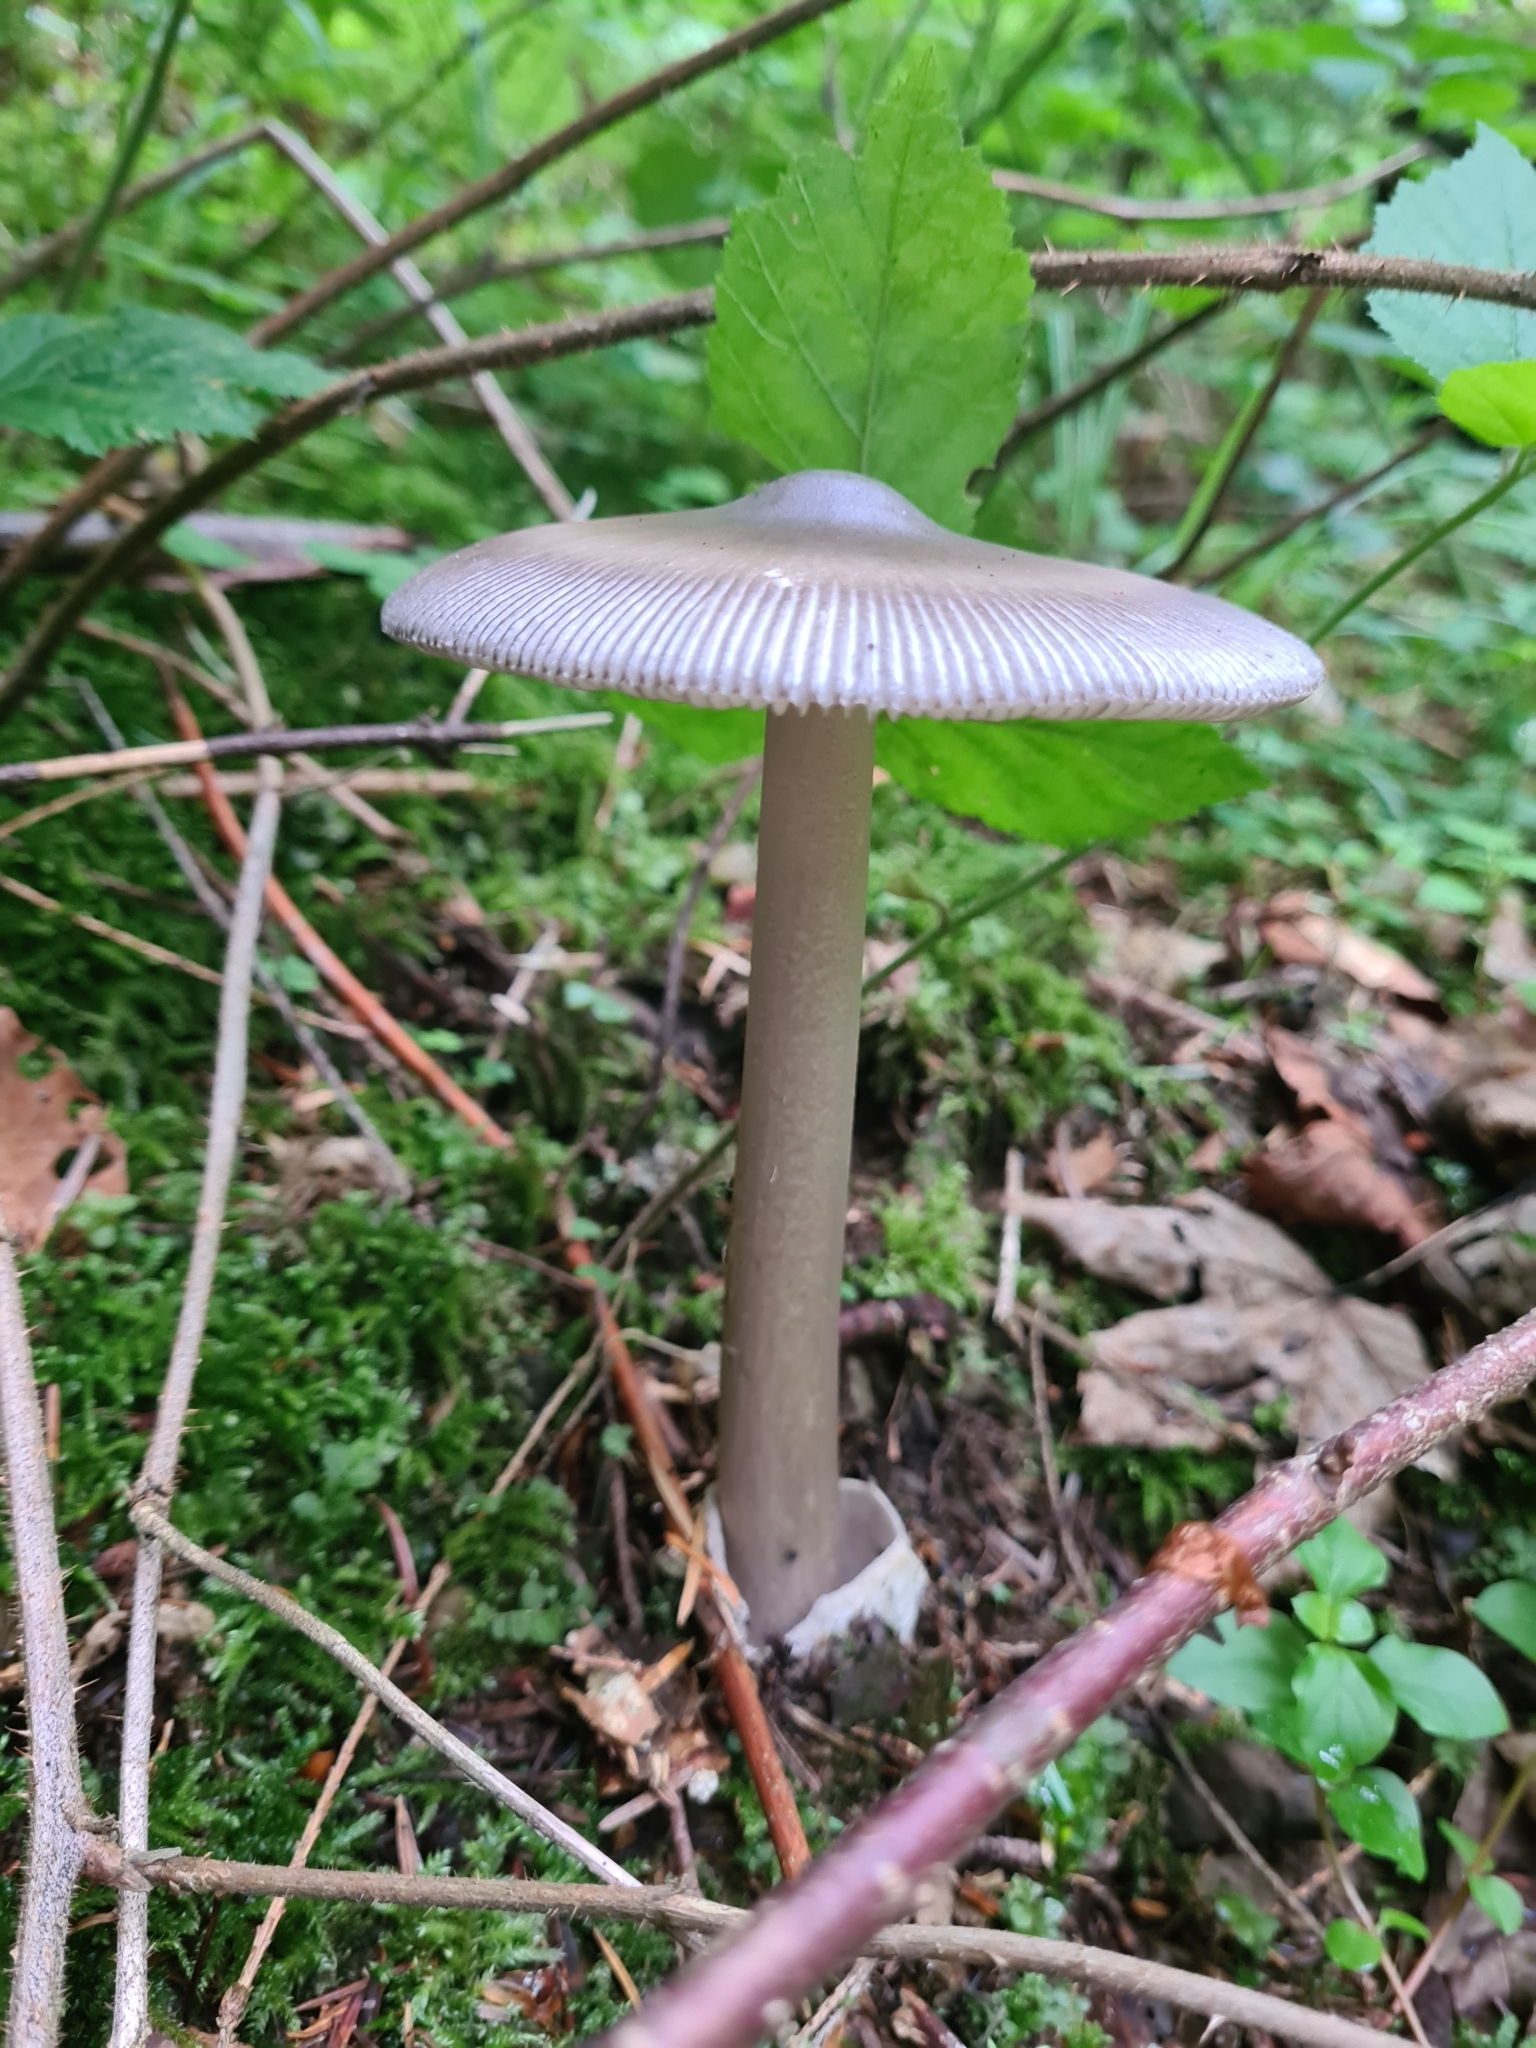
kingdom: Fungi
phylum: Basidiomycota
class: Agaricomycetes
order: Agaricales
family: Amanitaceae
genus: Amanita
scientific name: Amanita battarrae
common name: Banded amanita
